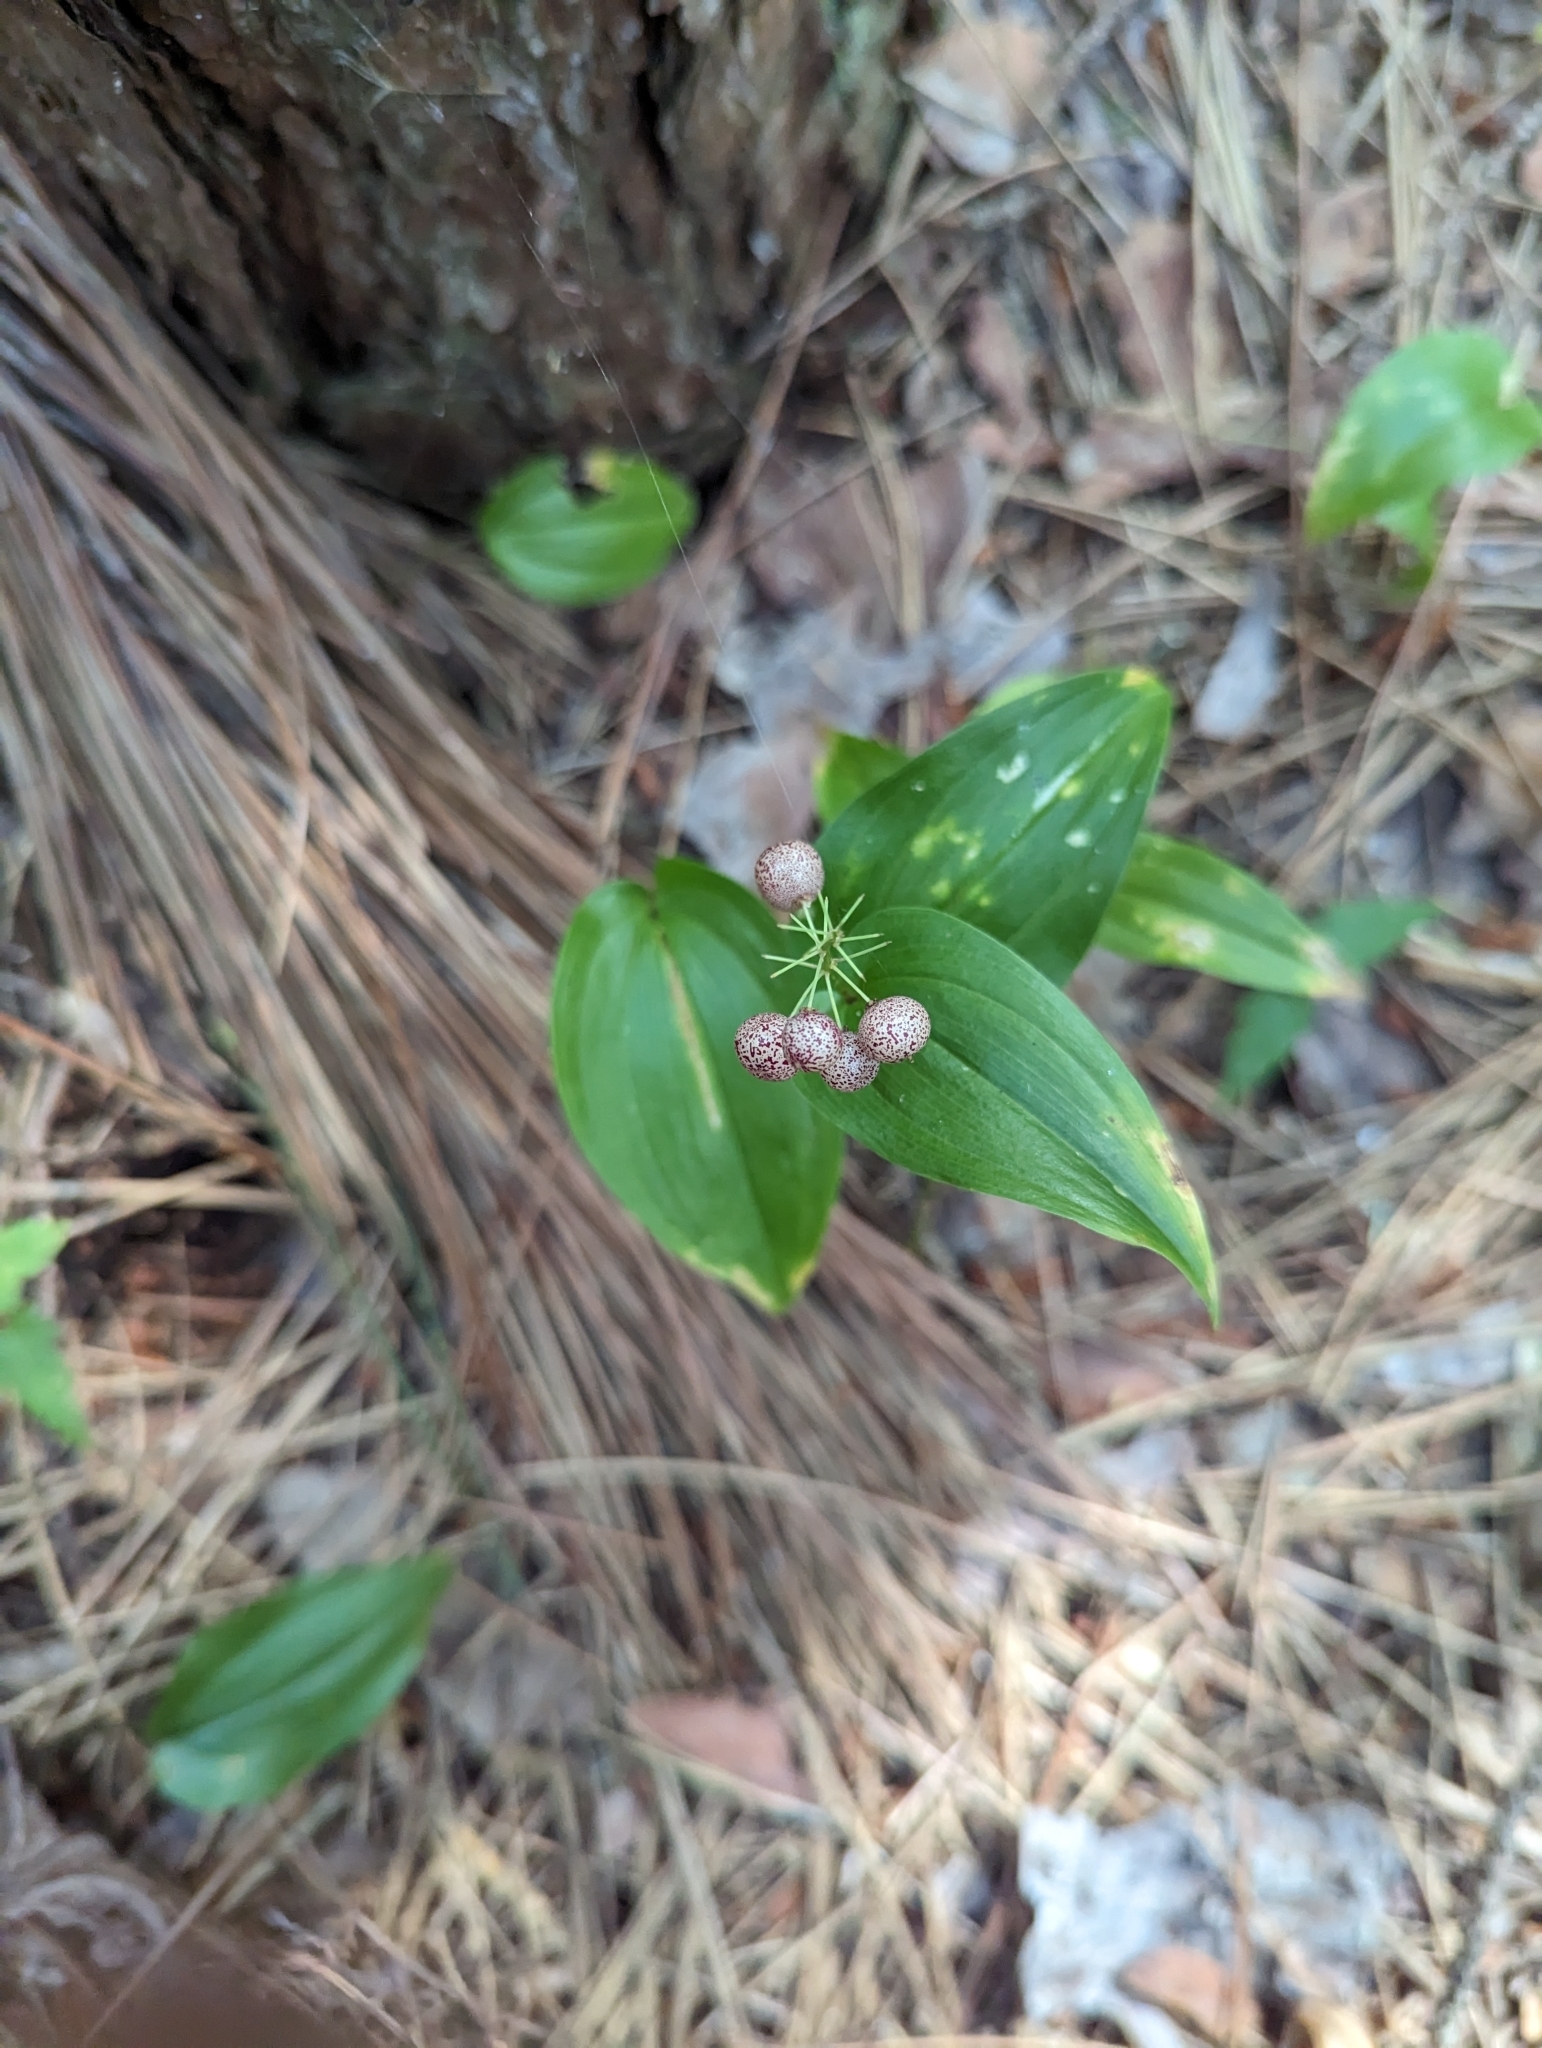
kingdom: Plantae
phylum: Tracheophyta
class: Liliopsida
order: Asparagales
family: Asparagaceae
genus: Maianthemum
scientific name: Maianthemum canadense
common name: False lily-of-the-valley
